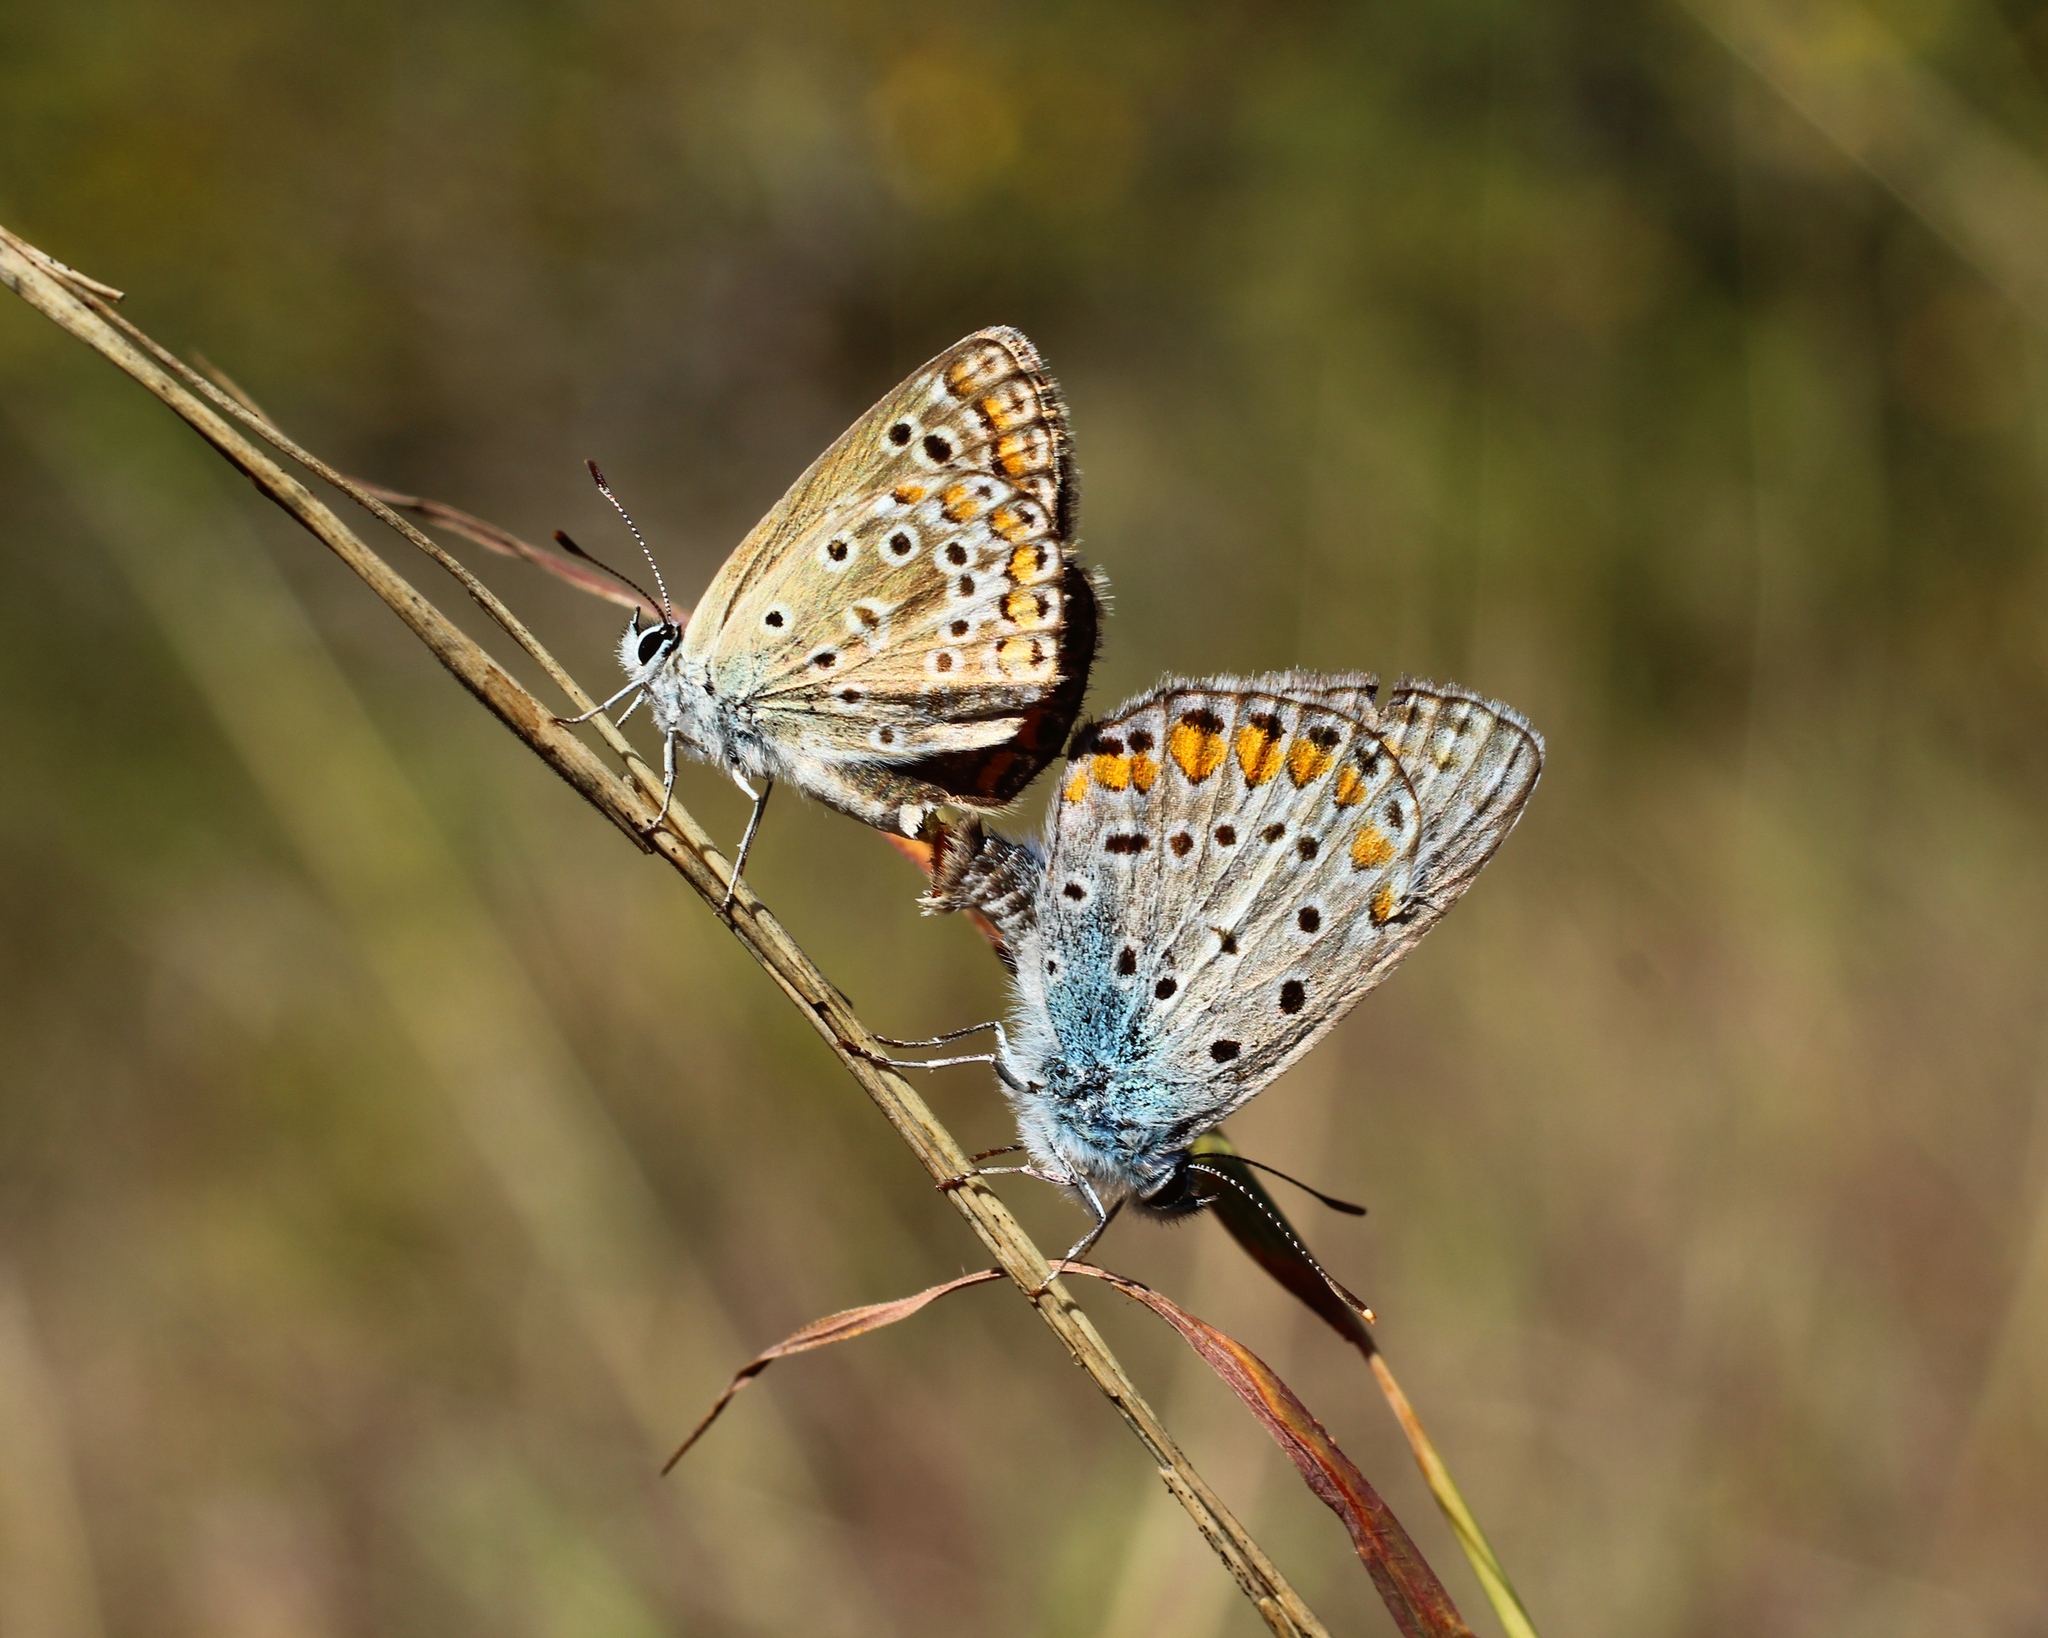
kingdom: Animalia
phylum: Arthropoda
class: Insecta
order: Lepidoptera
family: Lycaenidae
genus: Polyommatus
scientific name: Polyommatus icarus
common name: Common blue
